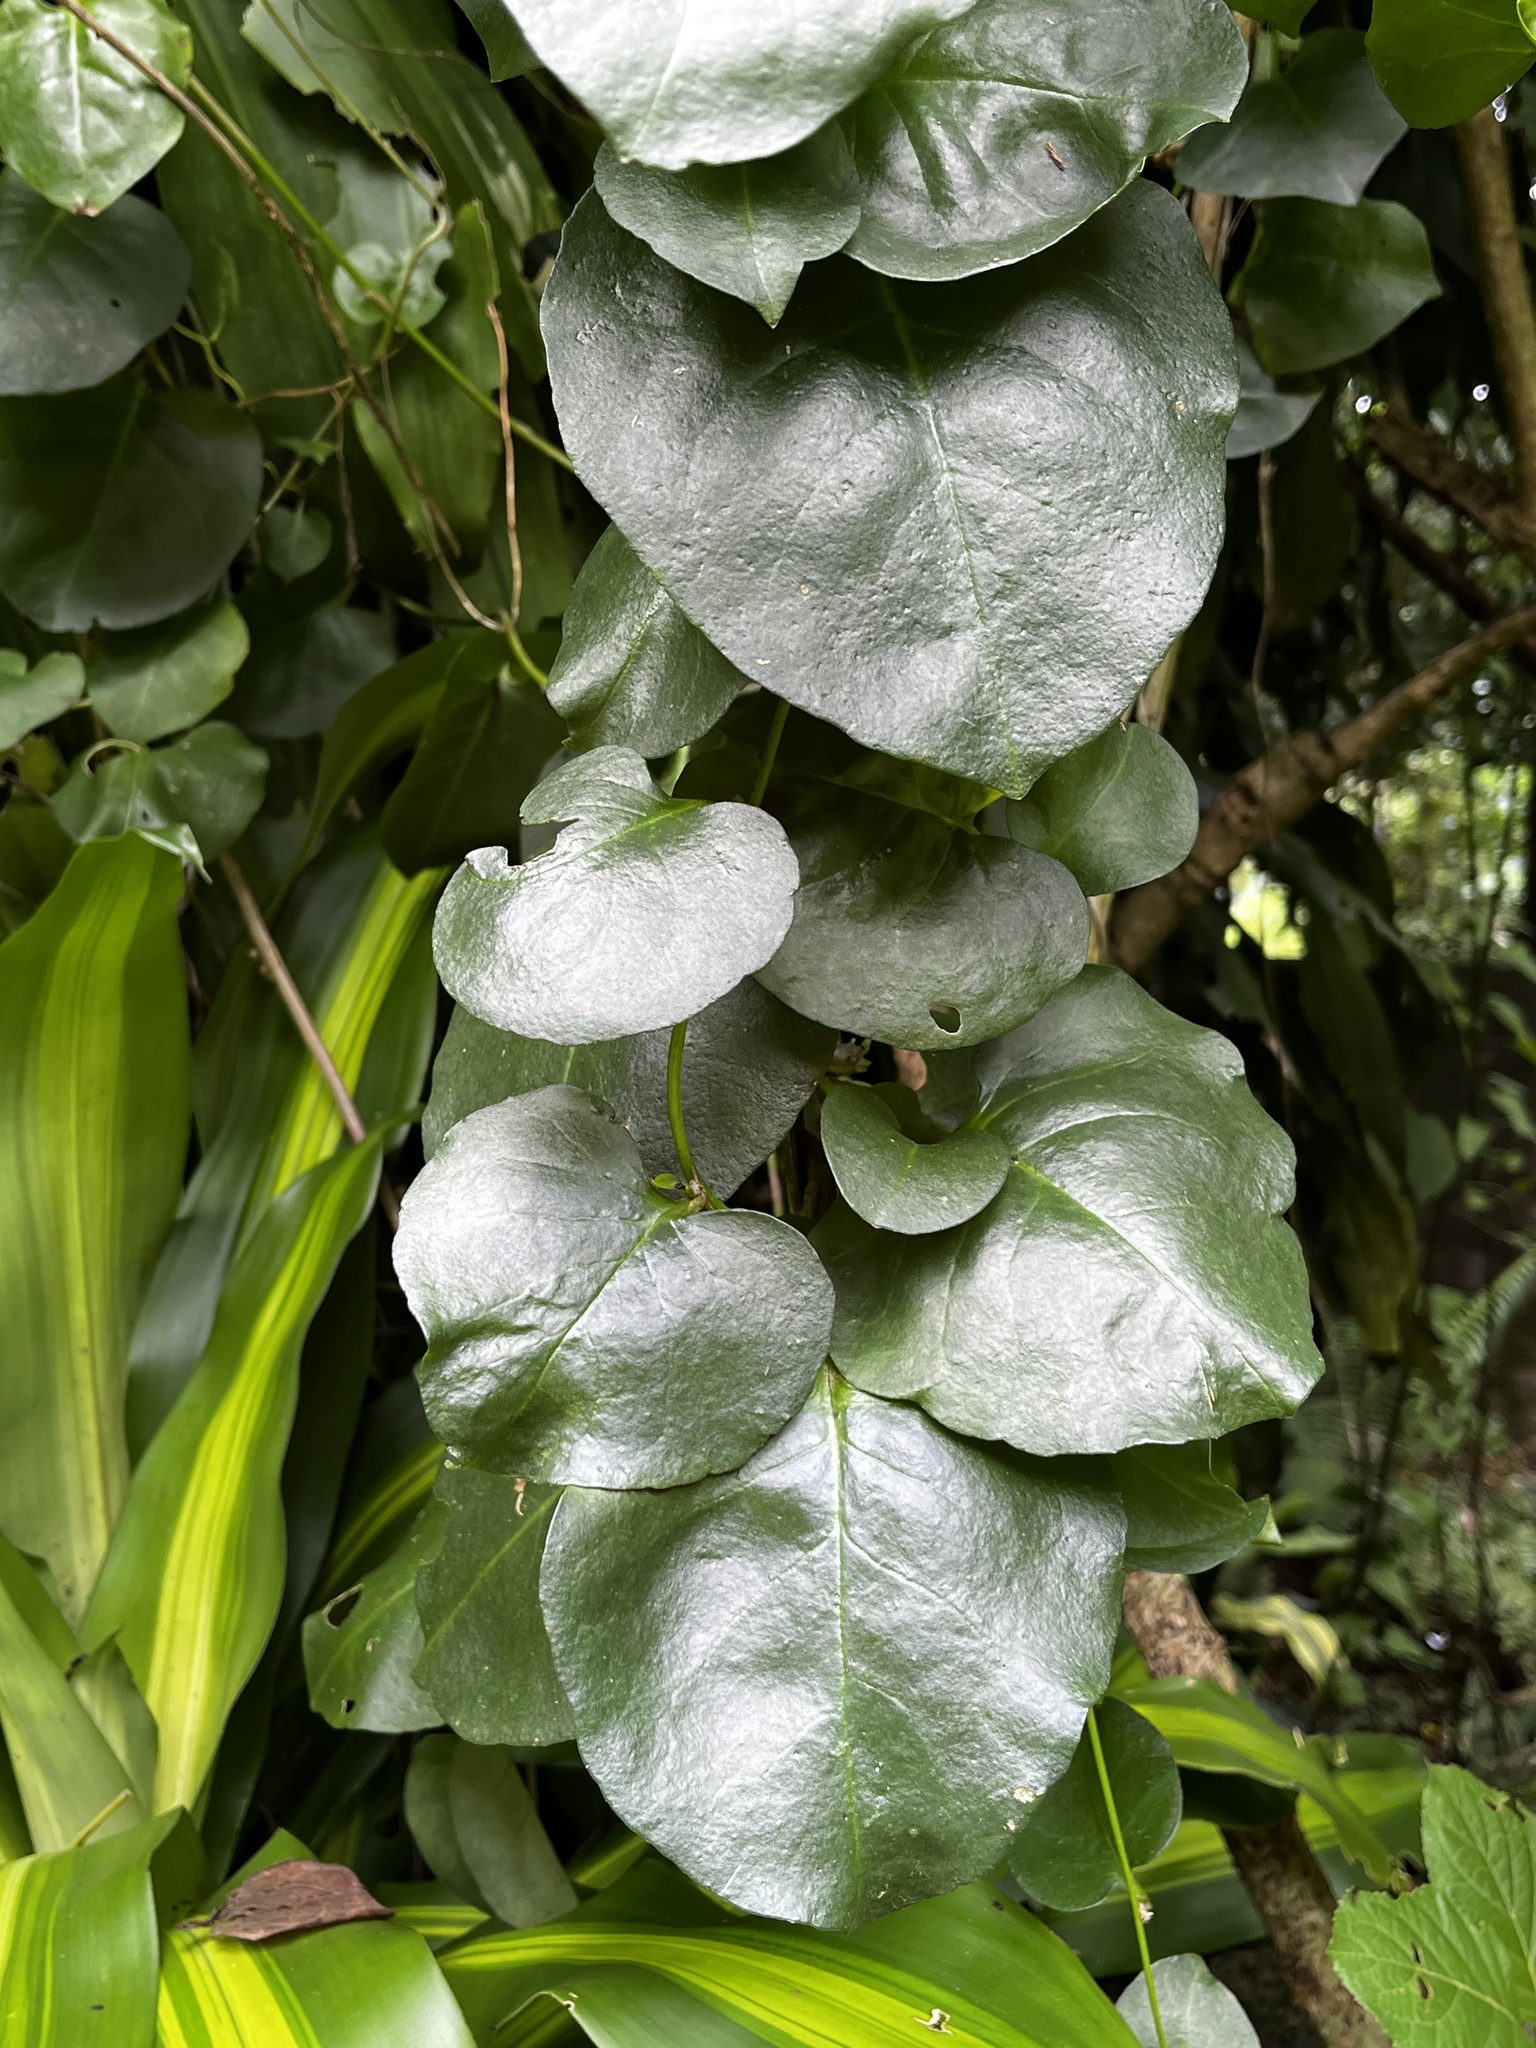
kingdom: Plantae
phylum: Tracheophyta
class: Magnoliopsida
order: Caryophyllales
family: Basellaceae
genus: Anredera
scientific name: Anredera cordifolia
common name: Heartleaf madeiravine
